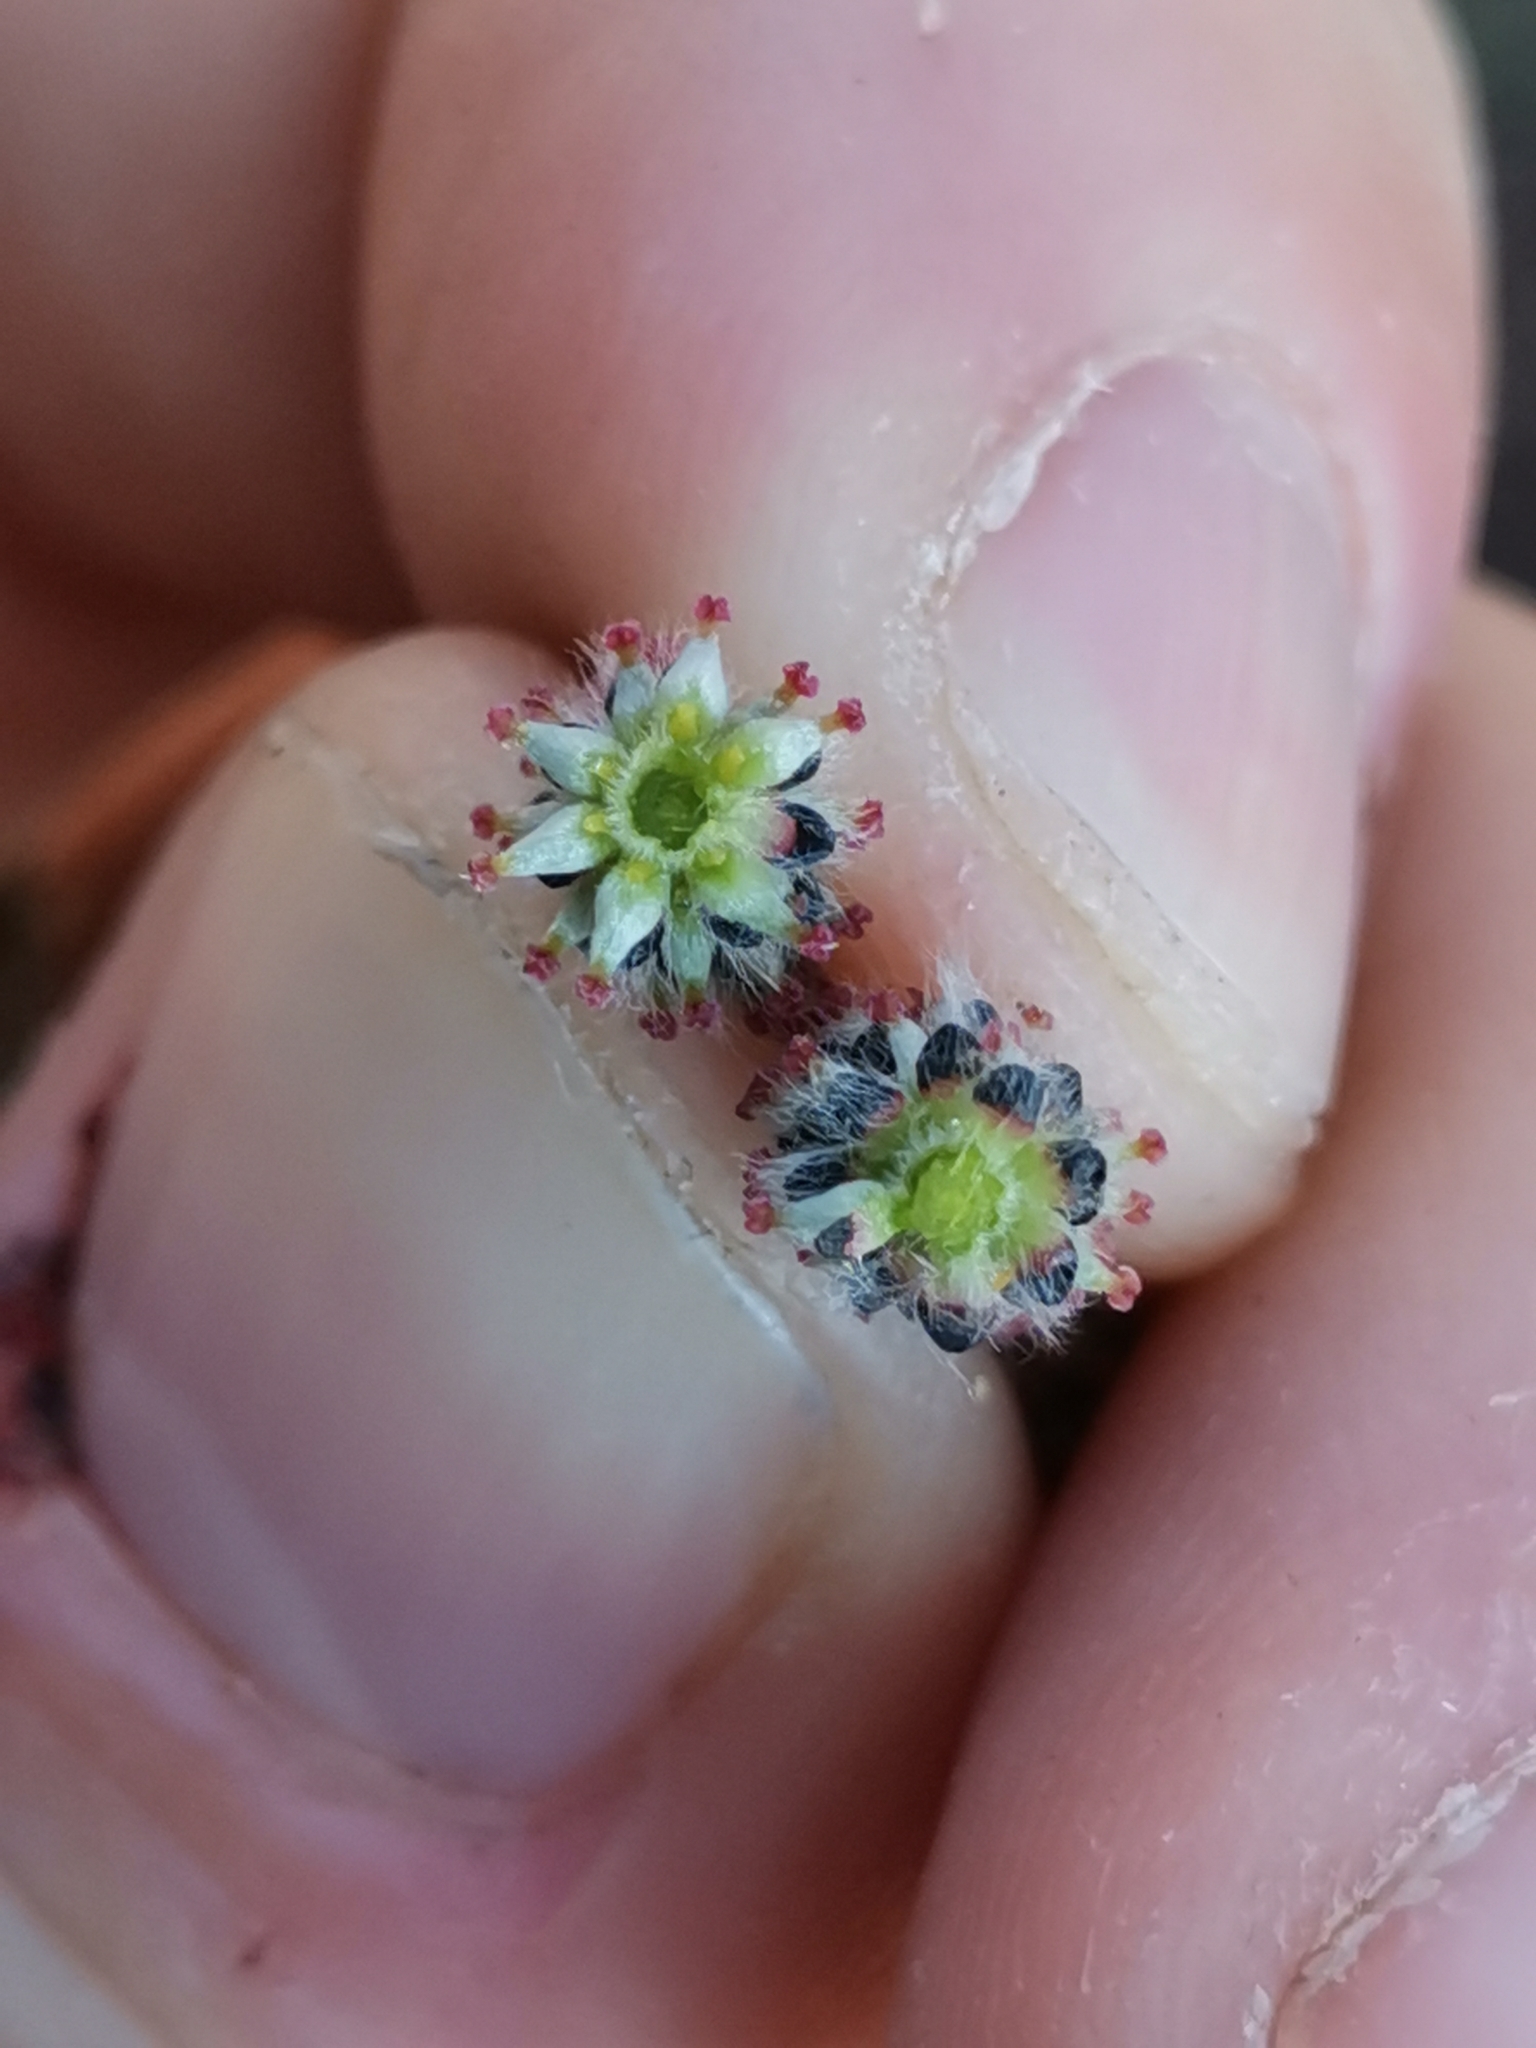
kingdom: Plantae
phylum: Tracheophyta
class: Magnoliopsida
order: Malpighiales
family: Salicaceae
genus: Salix
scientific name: Salix purpurea
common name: Purple willow
